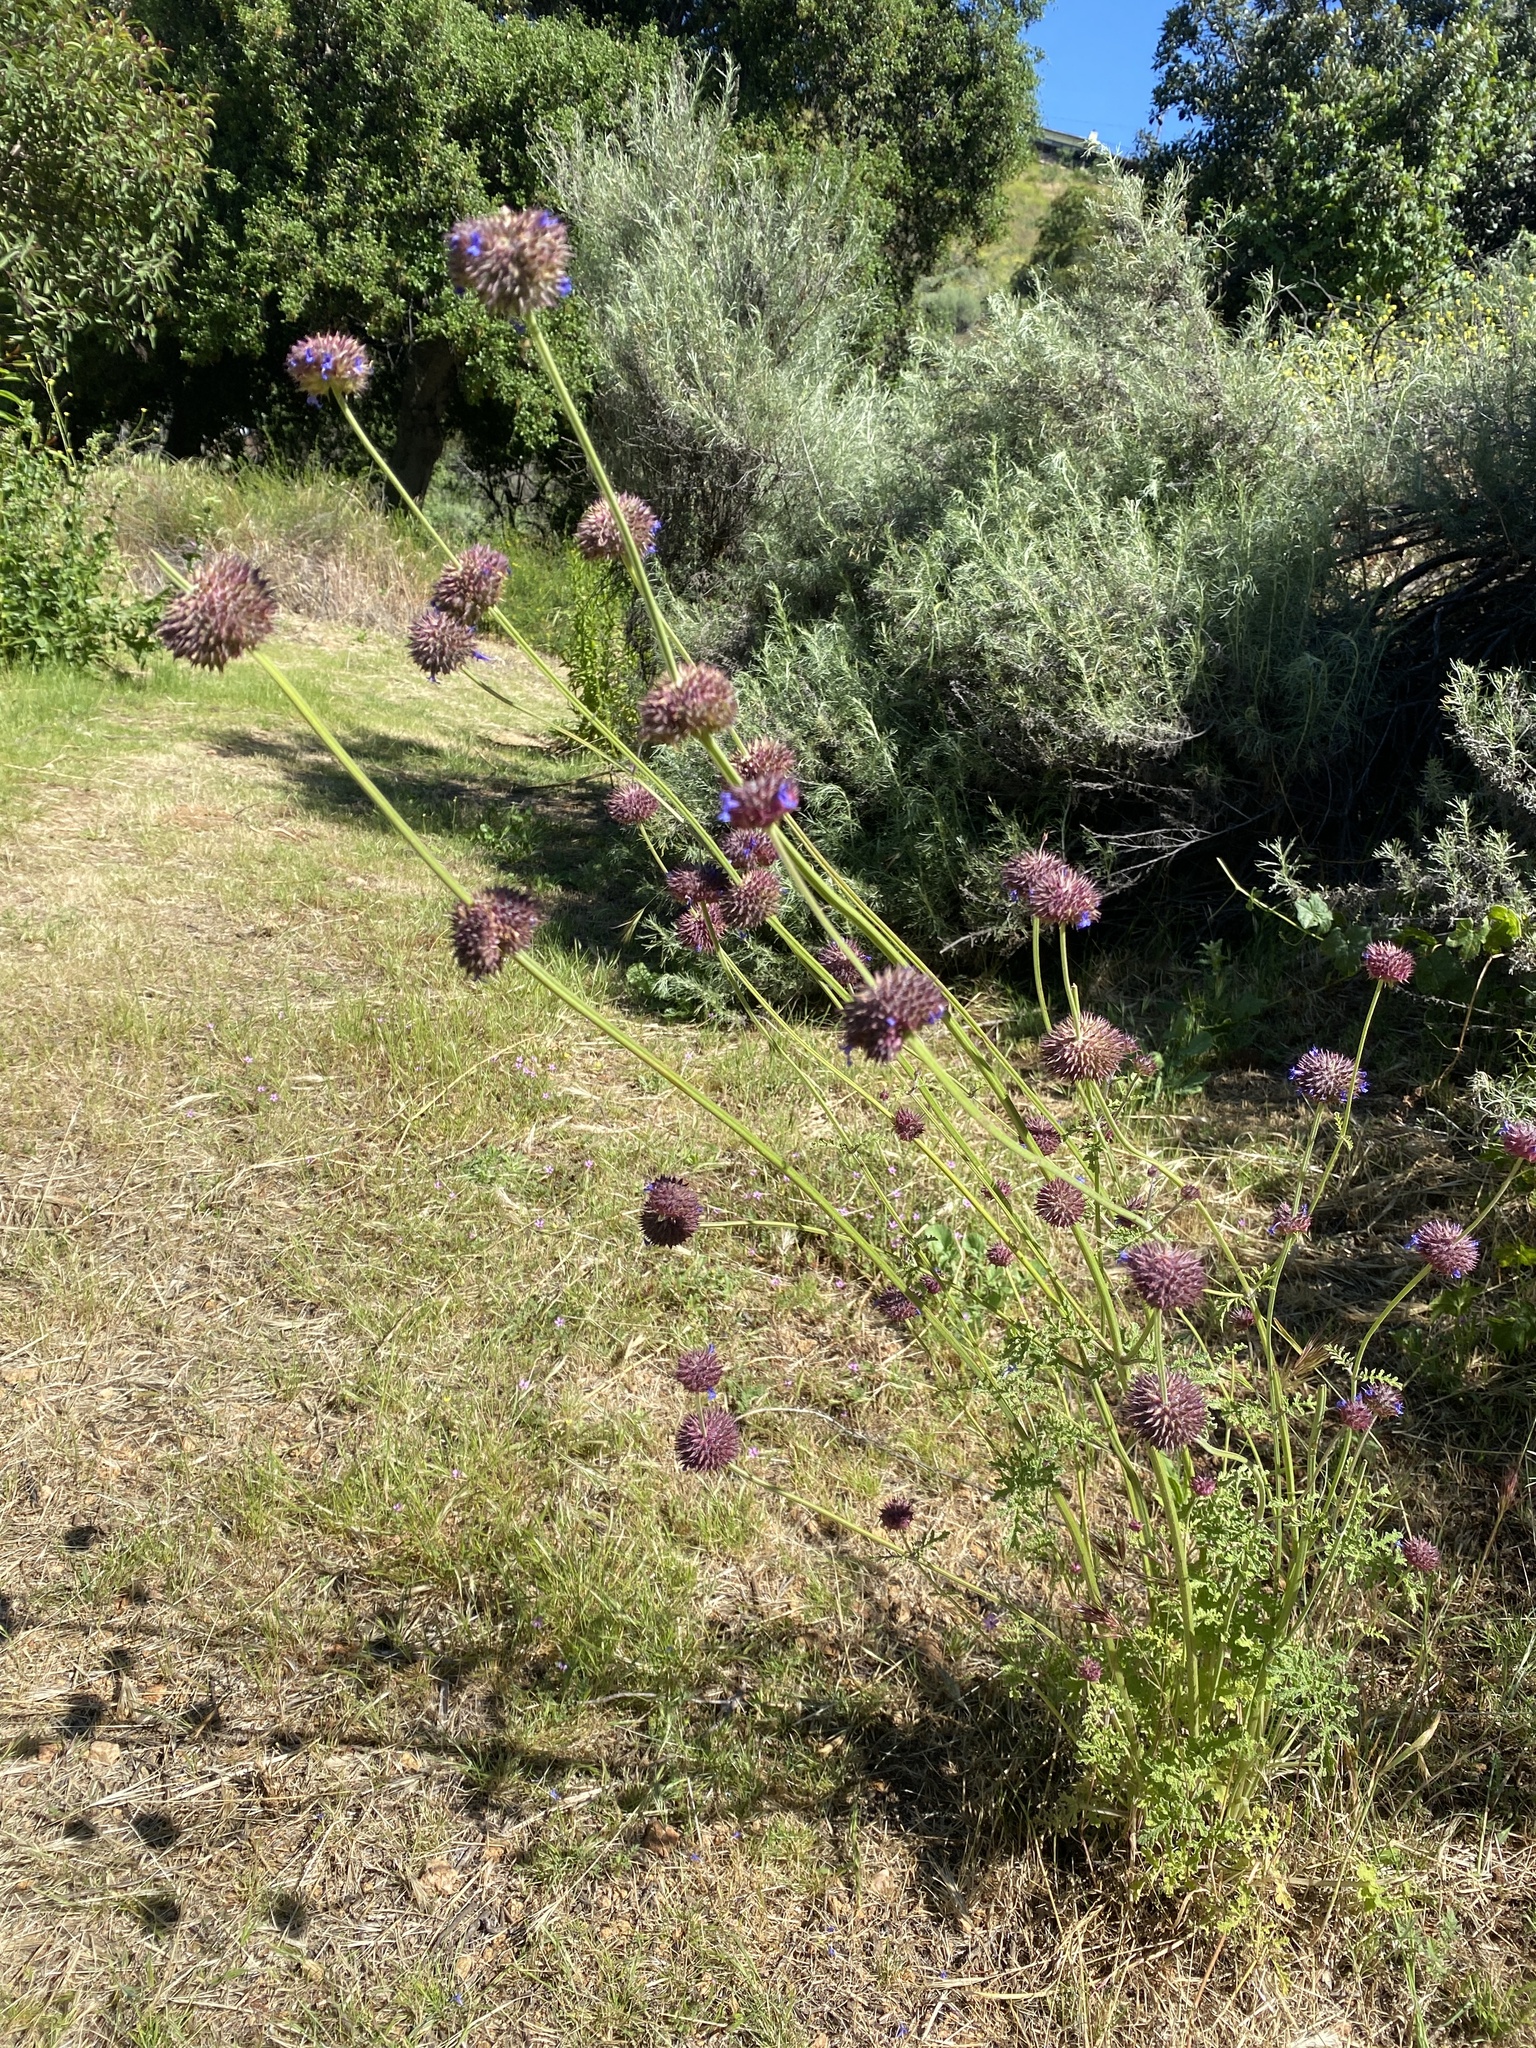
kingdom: Plantae
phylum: Tracheophyta
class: Magnoliopsida
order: Lamiales
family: Lamiaceae
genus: Salvia
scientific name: Salvia columbariae
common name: Chia
